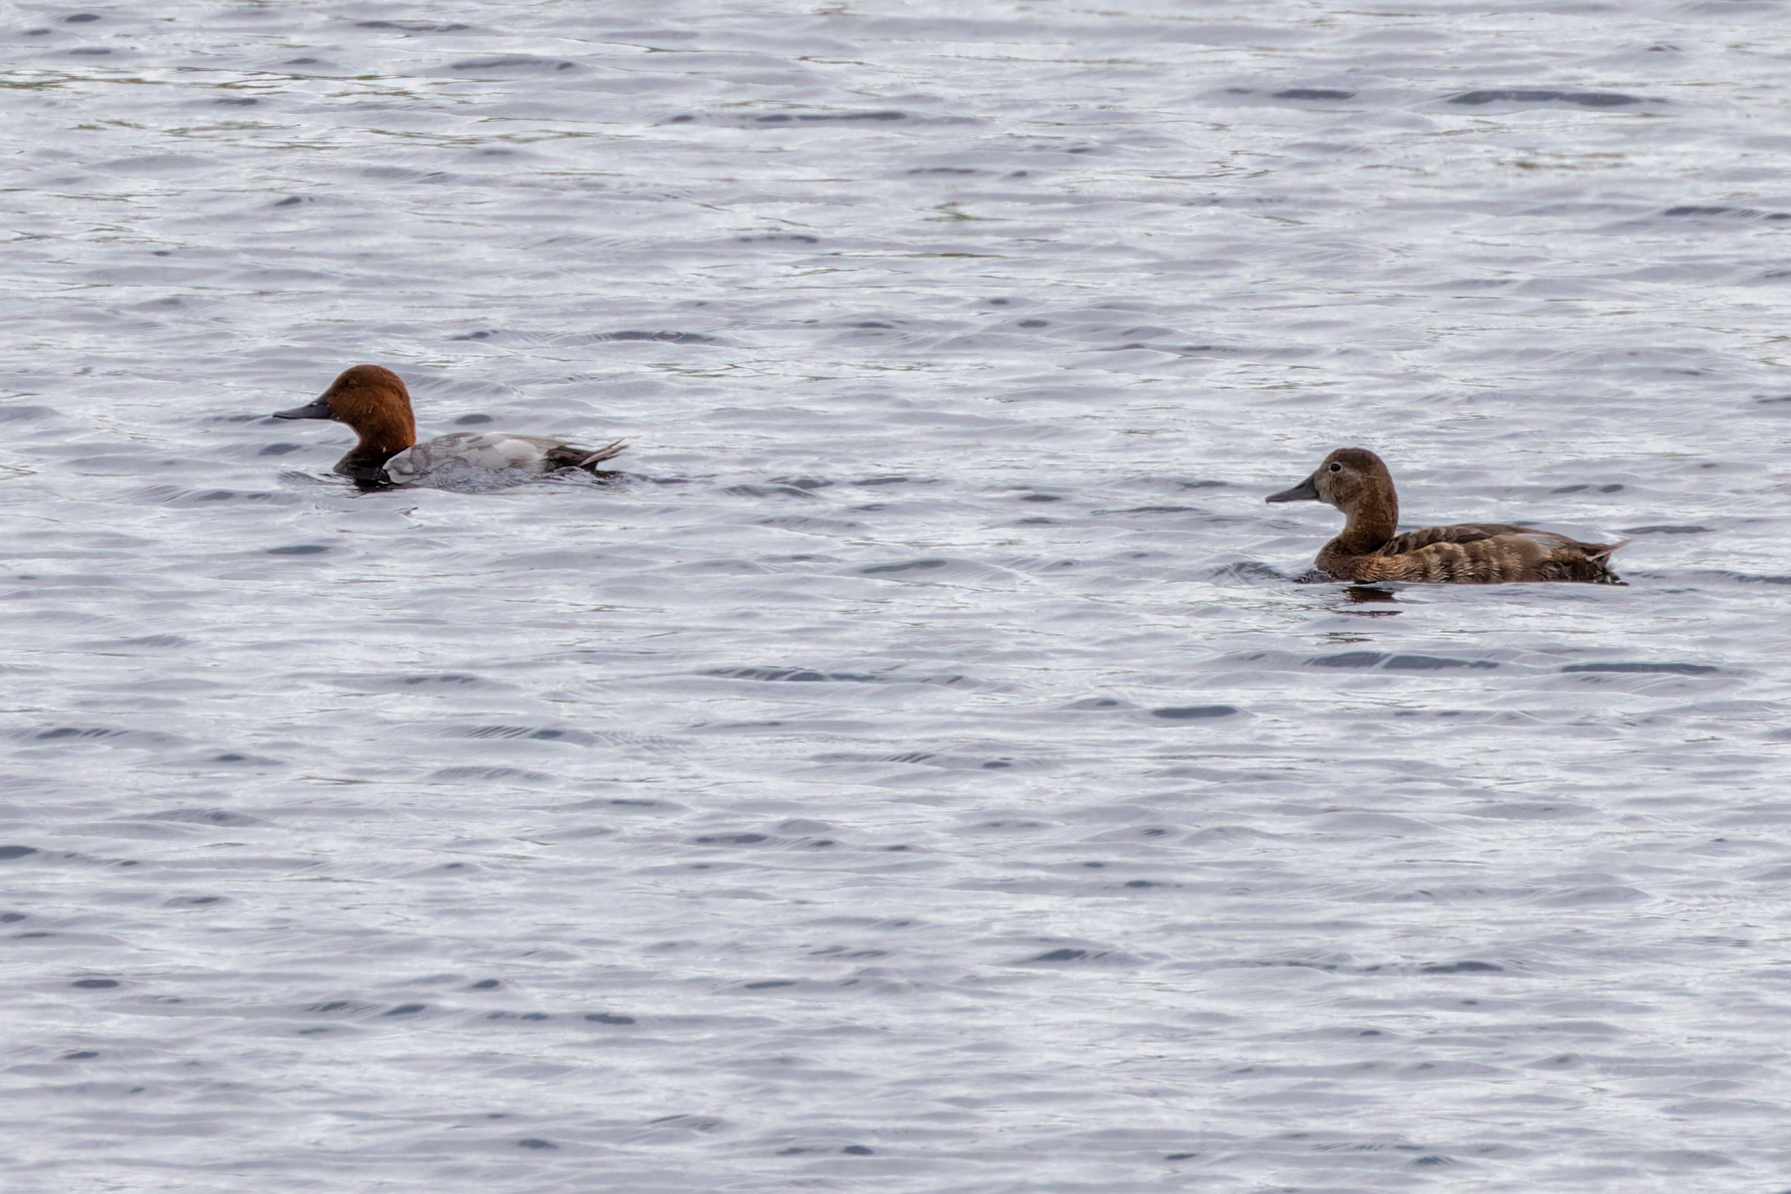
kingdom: Animalia
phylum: Chordata
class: Aves
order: Anseriformes
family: Anatidae
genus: Aythya
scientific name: Aythya ferina
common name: Common pochard
